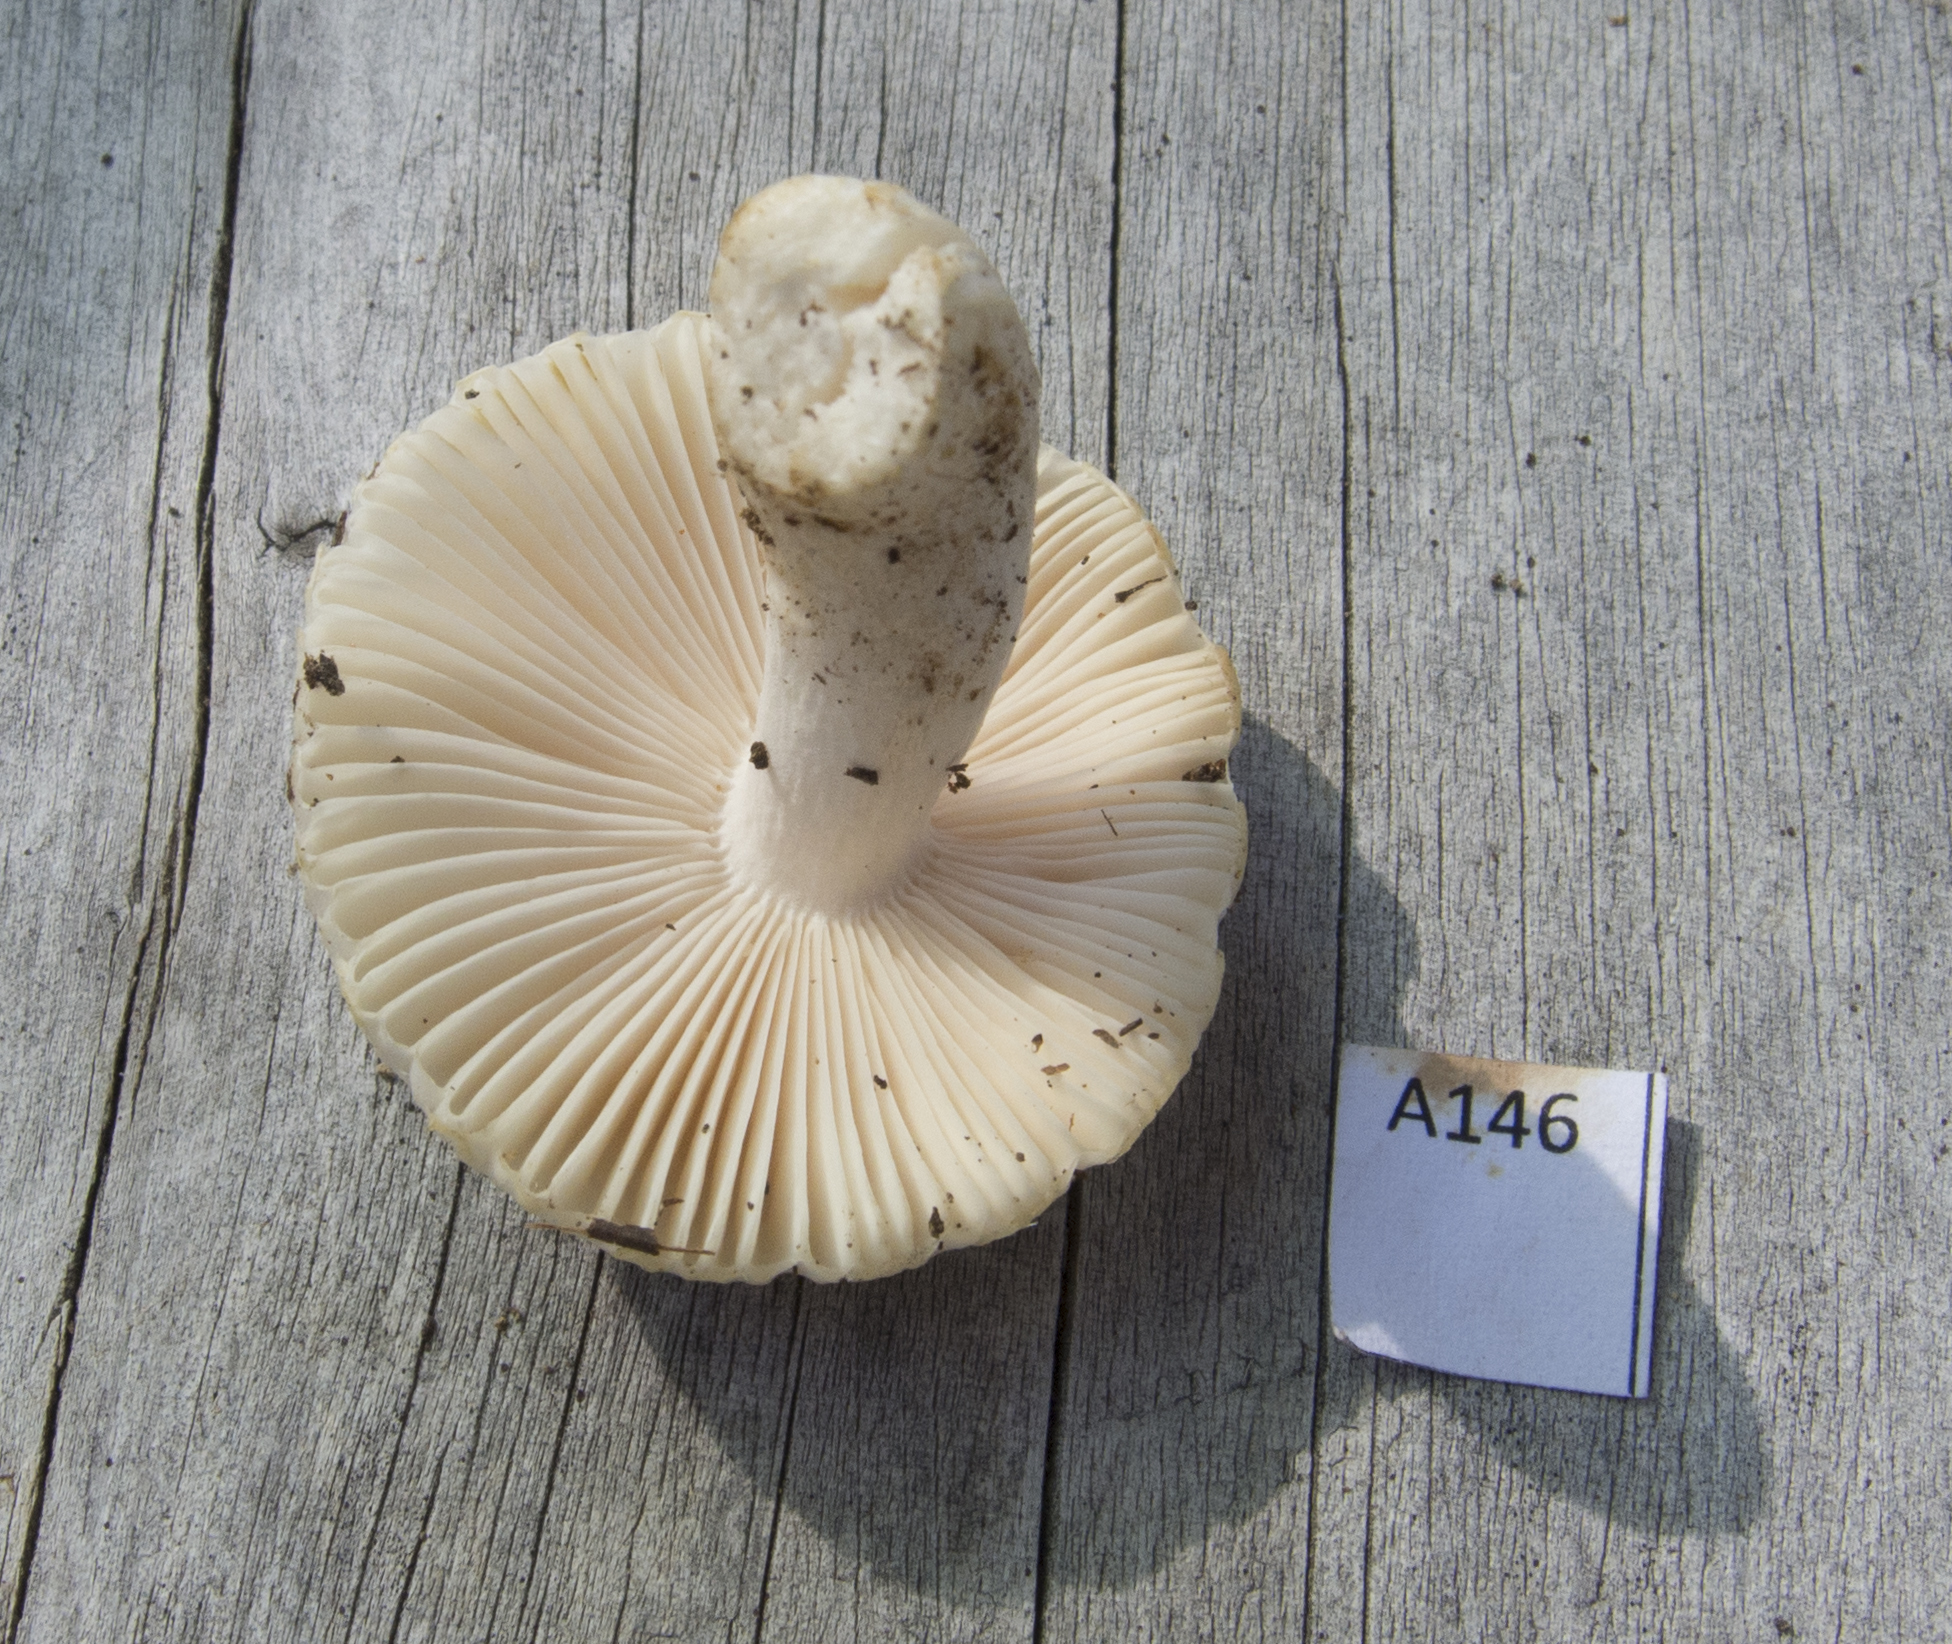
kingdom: Fungi
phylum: Basidiomycota
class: Agaricomycetes
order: Russulales
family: Russulaceae
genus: Russula
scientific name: Russula albolutescens
